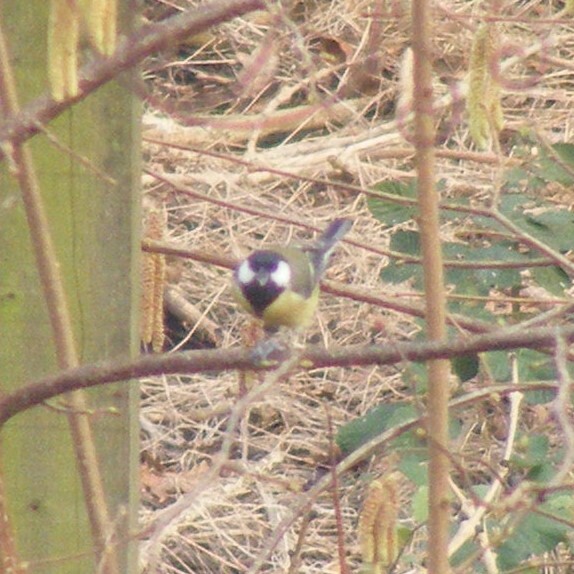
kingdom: Animalia
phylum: Chordata
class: Aves
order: Passeriformes
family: Paridae
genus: Parus
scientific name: Parus major
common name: Great tit
